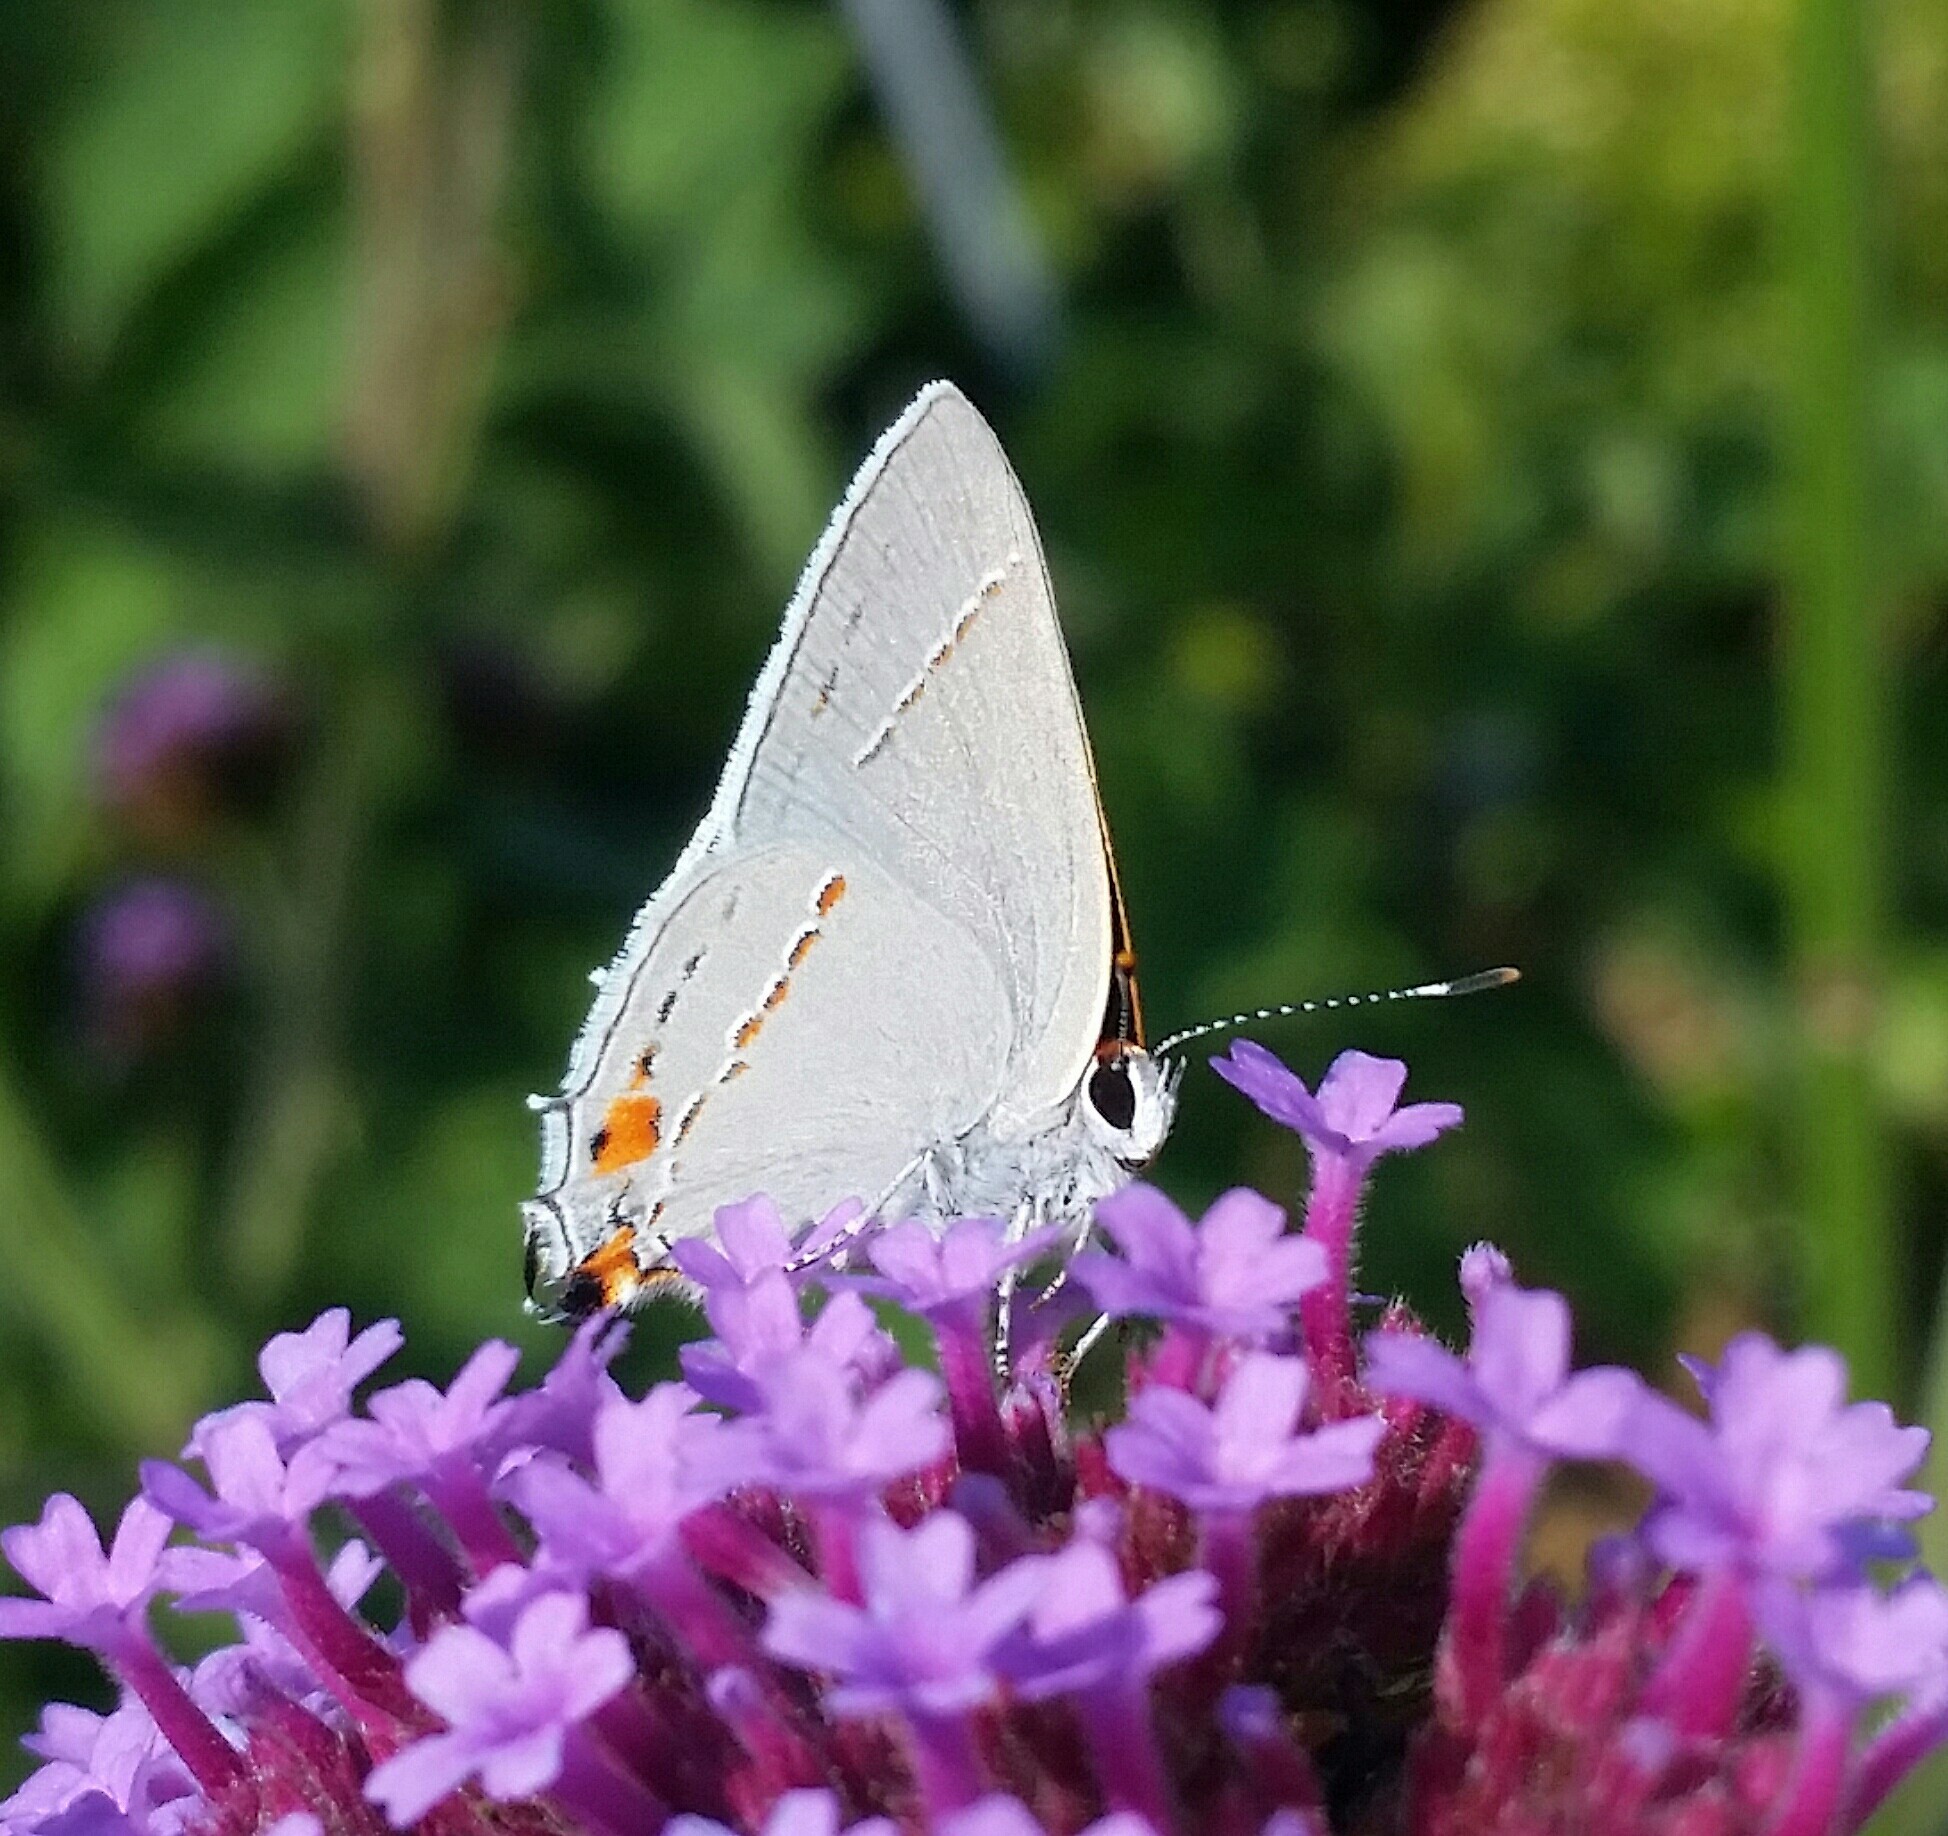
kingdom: Animalia
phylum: Arthropoda
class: Insecta
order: Lepidoptera
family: Lycaenidae
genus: Strymon
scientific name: Strymon melinus
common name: Gray hairstreak
